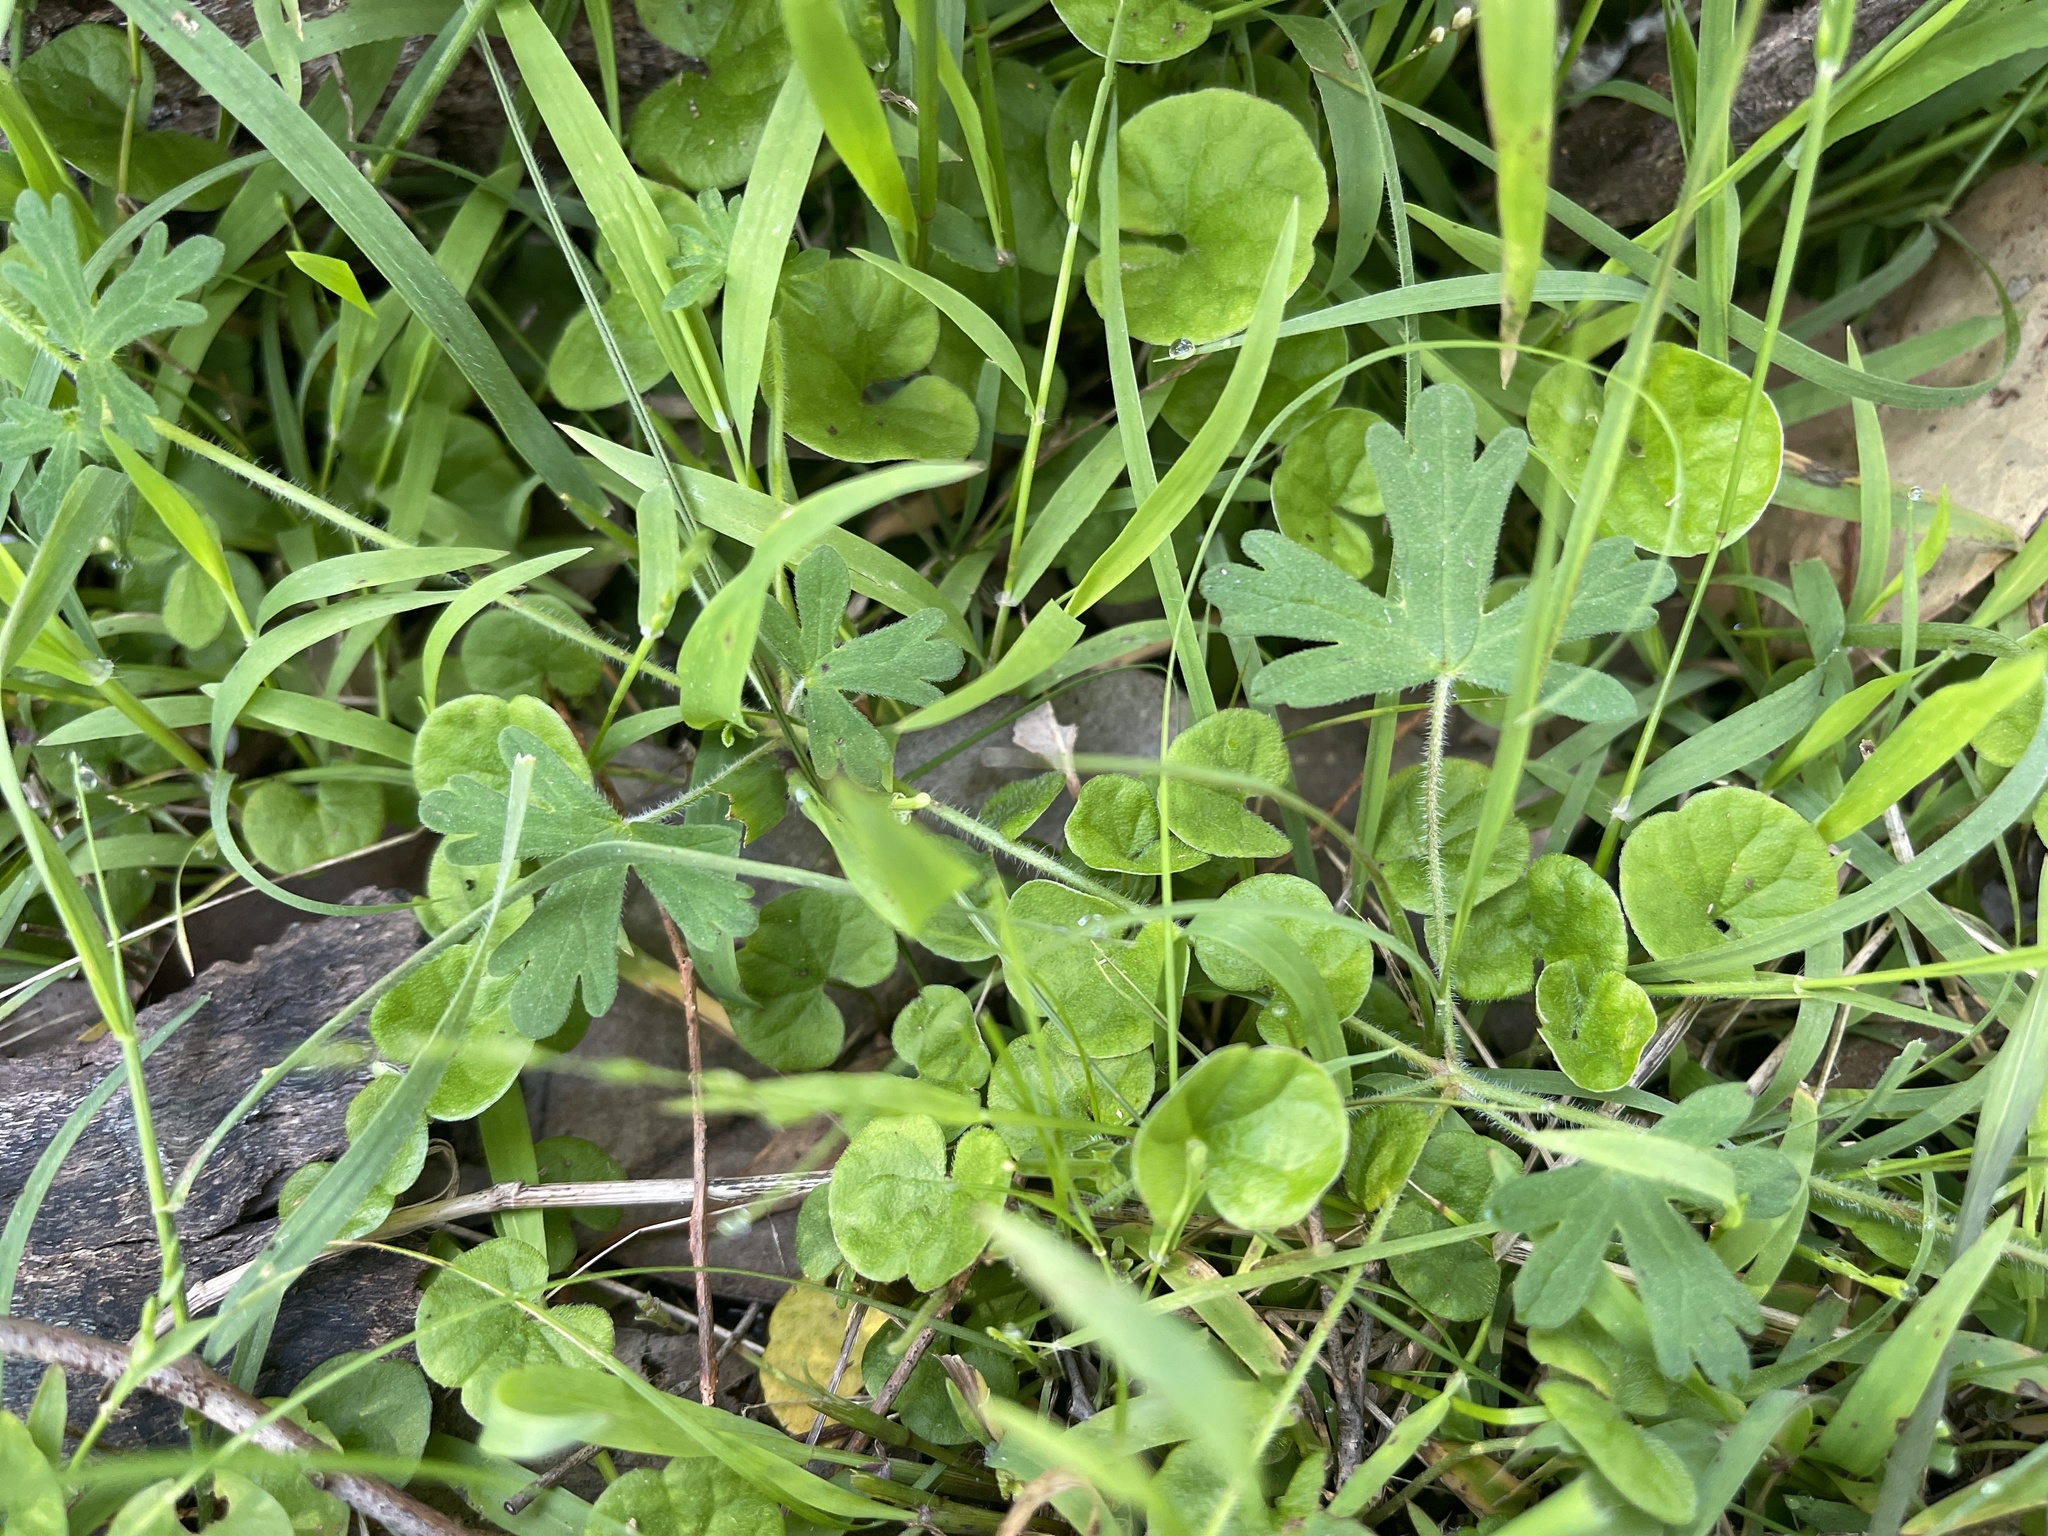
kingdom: Plantae
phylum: Tracheophyta
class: Magnoliopsida
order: Solanales
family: Convolvulaceae
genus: Dichondra
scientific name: Dichondra repens
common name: Kidneyweed
